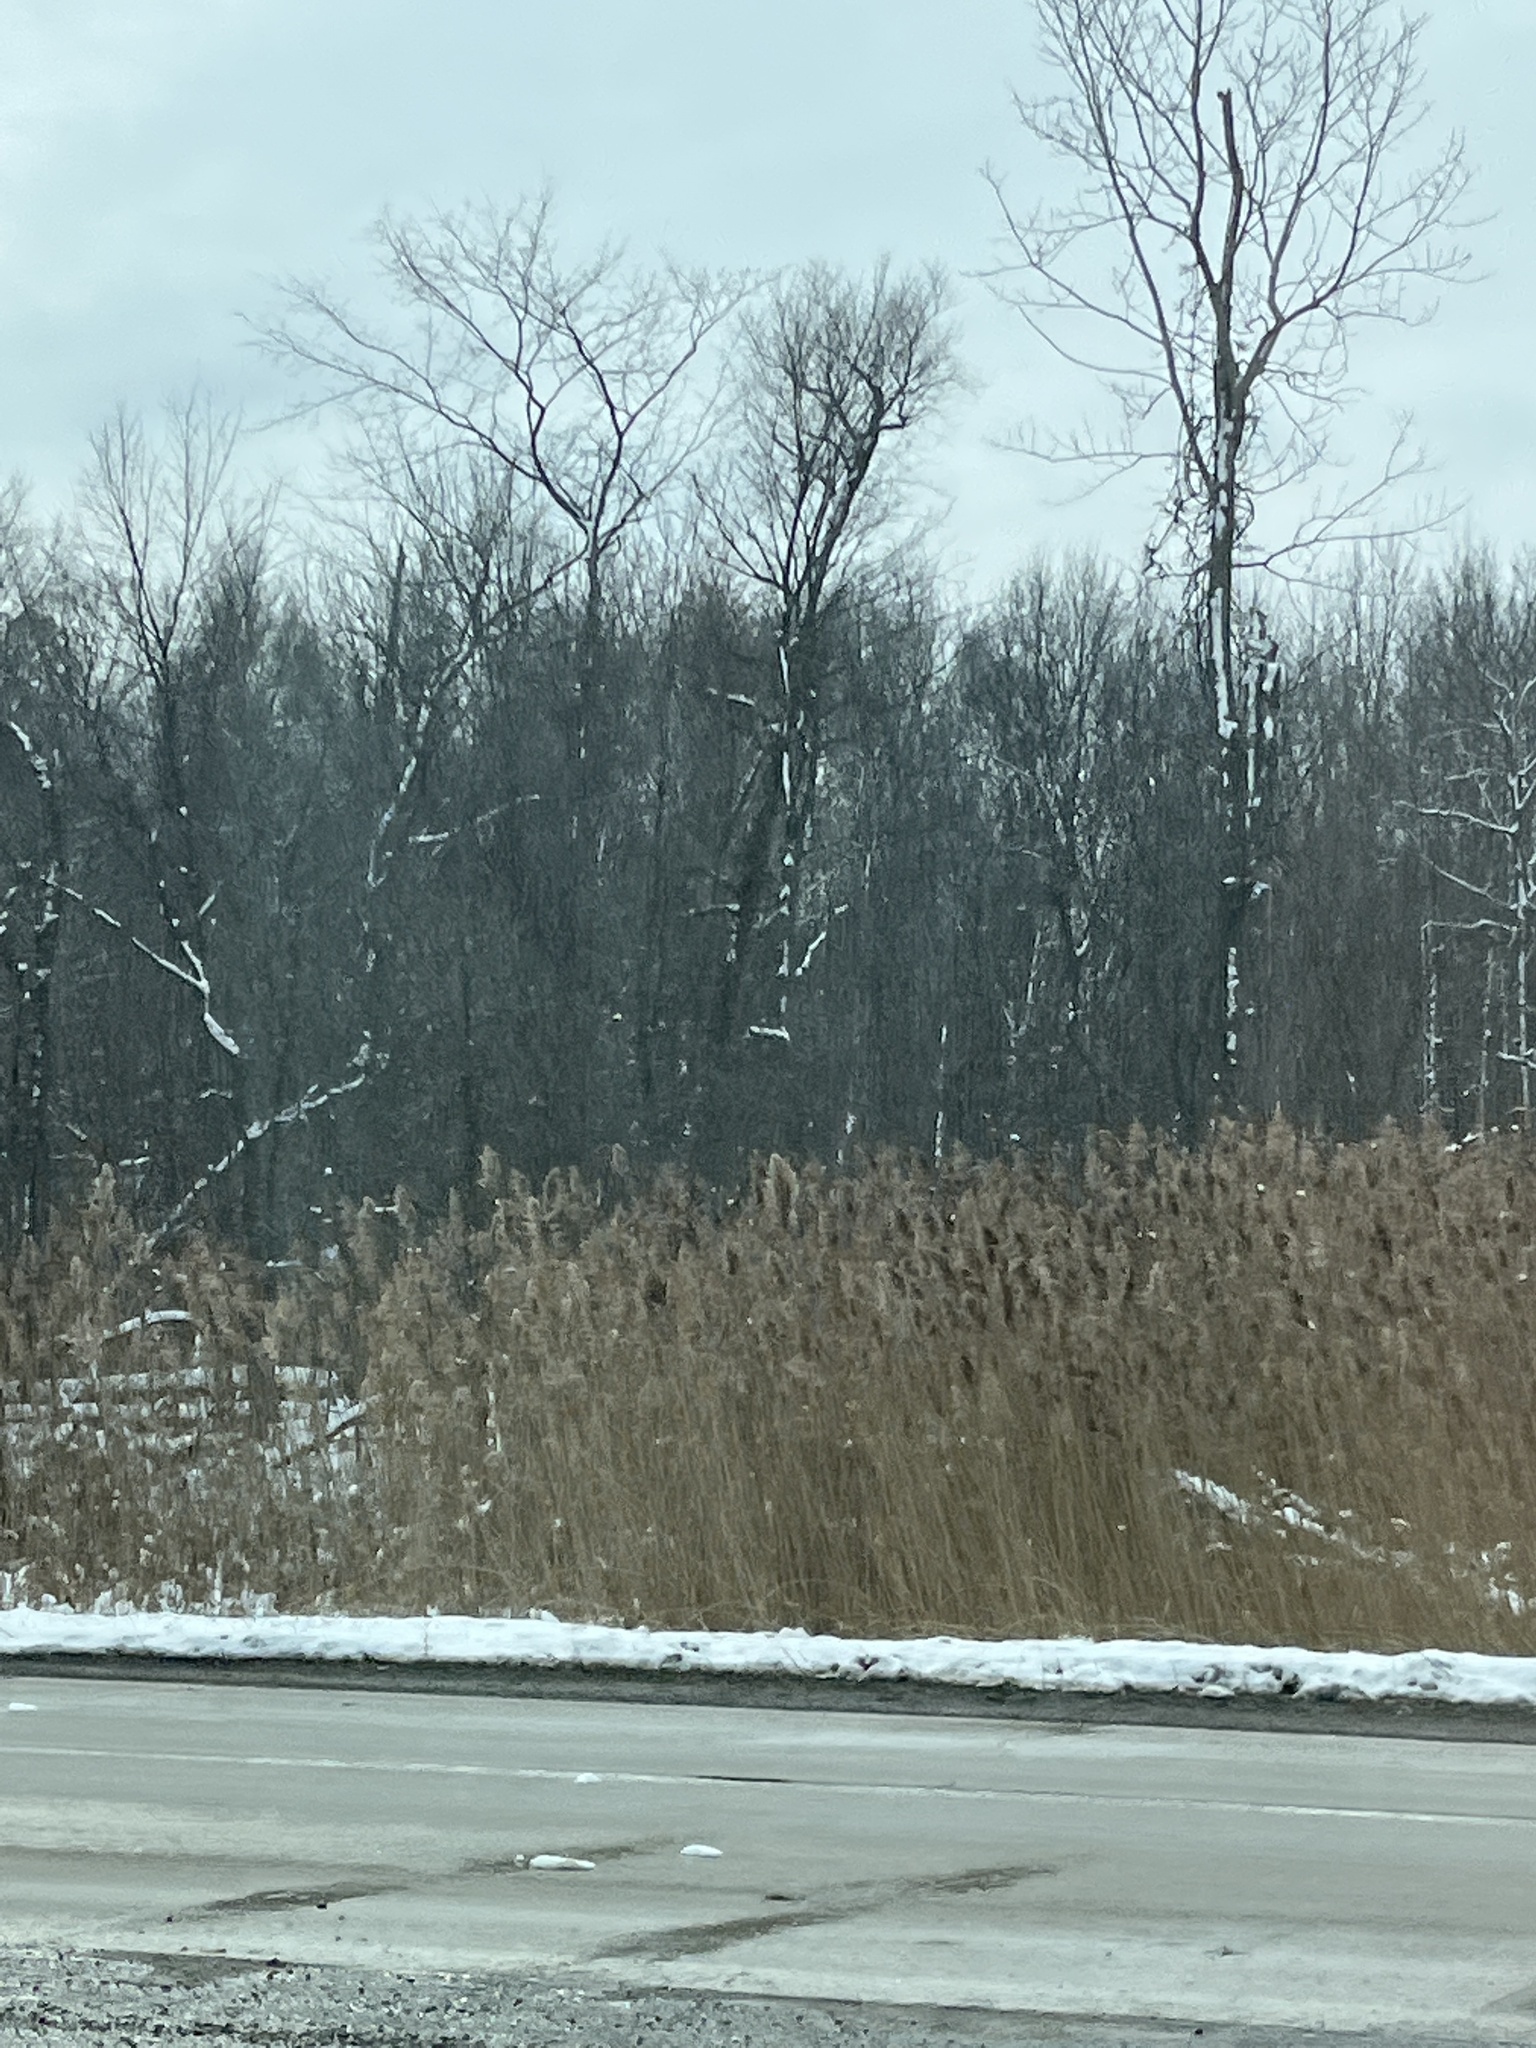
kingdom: Plantae
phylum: Tracheophyta
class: Liliopsida
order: Poales
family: Poaceae
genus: Phragmites
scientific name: Phragmites australis
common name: Common reed
